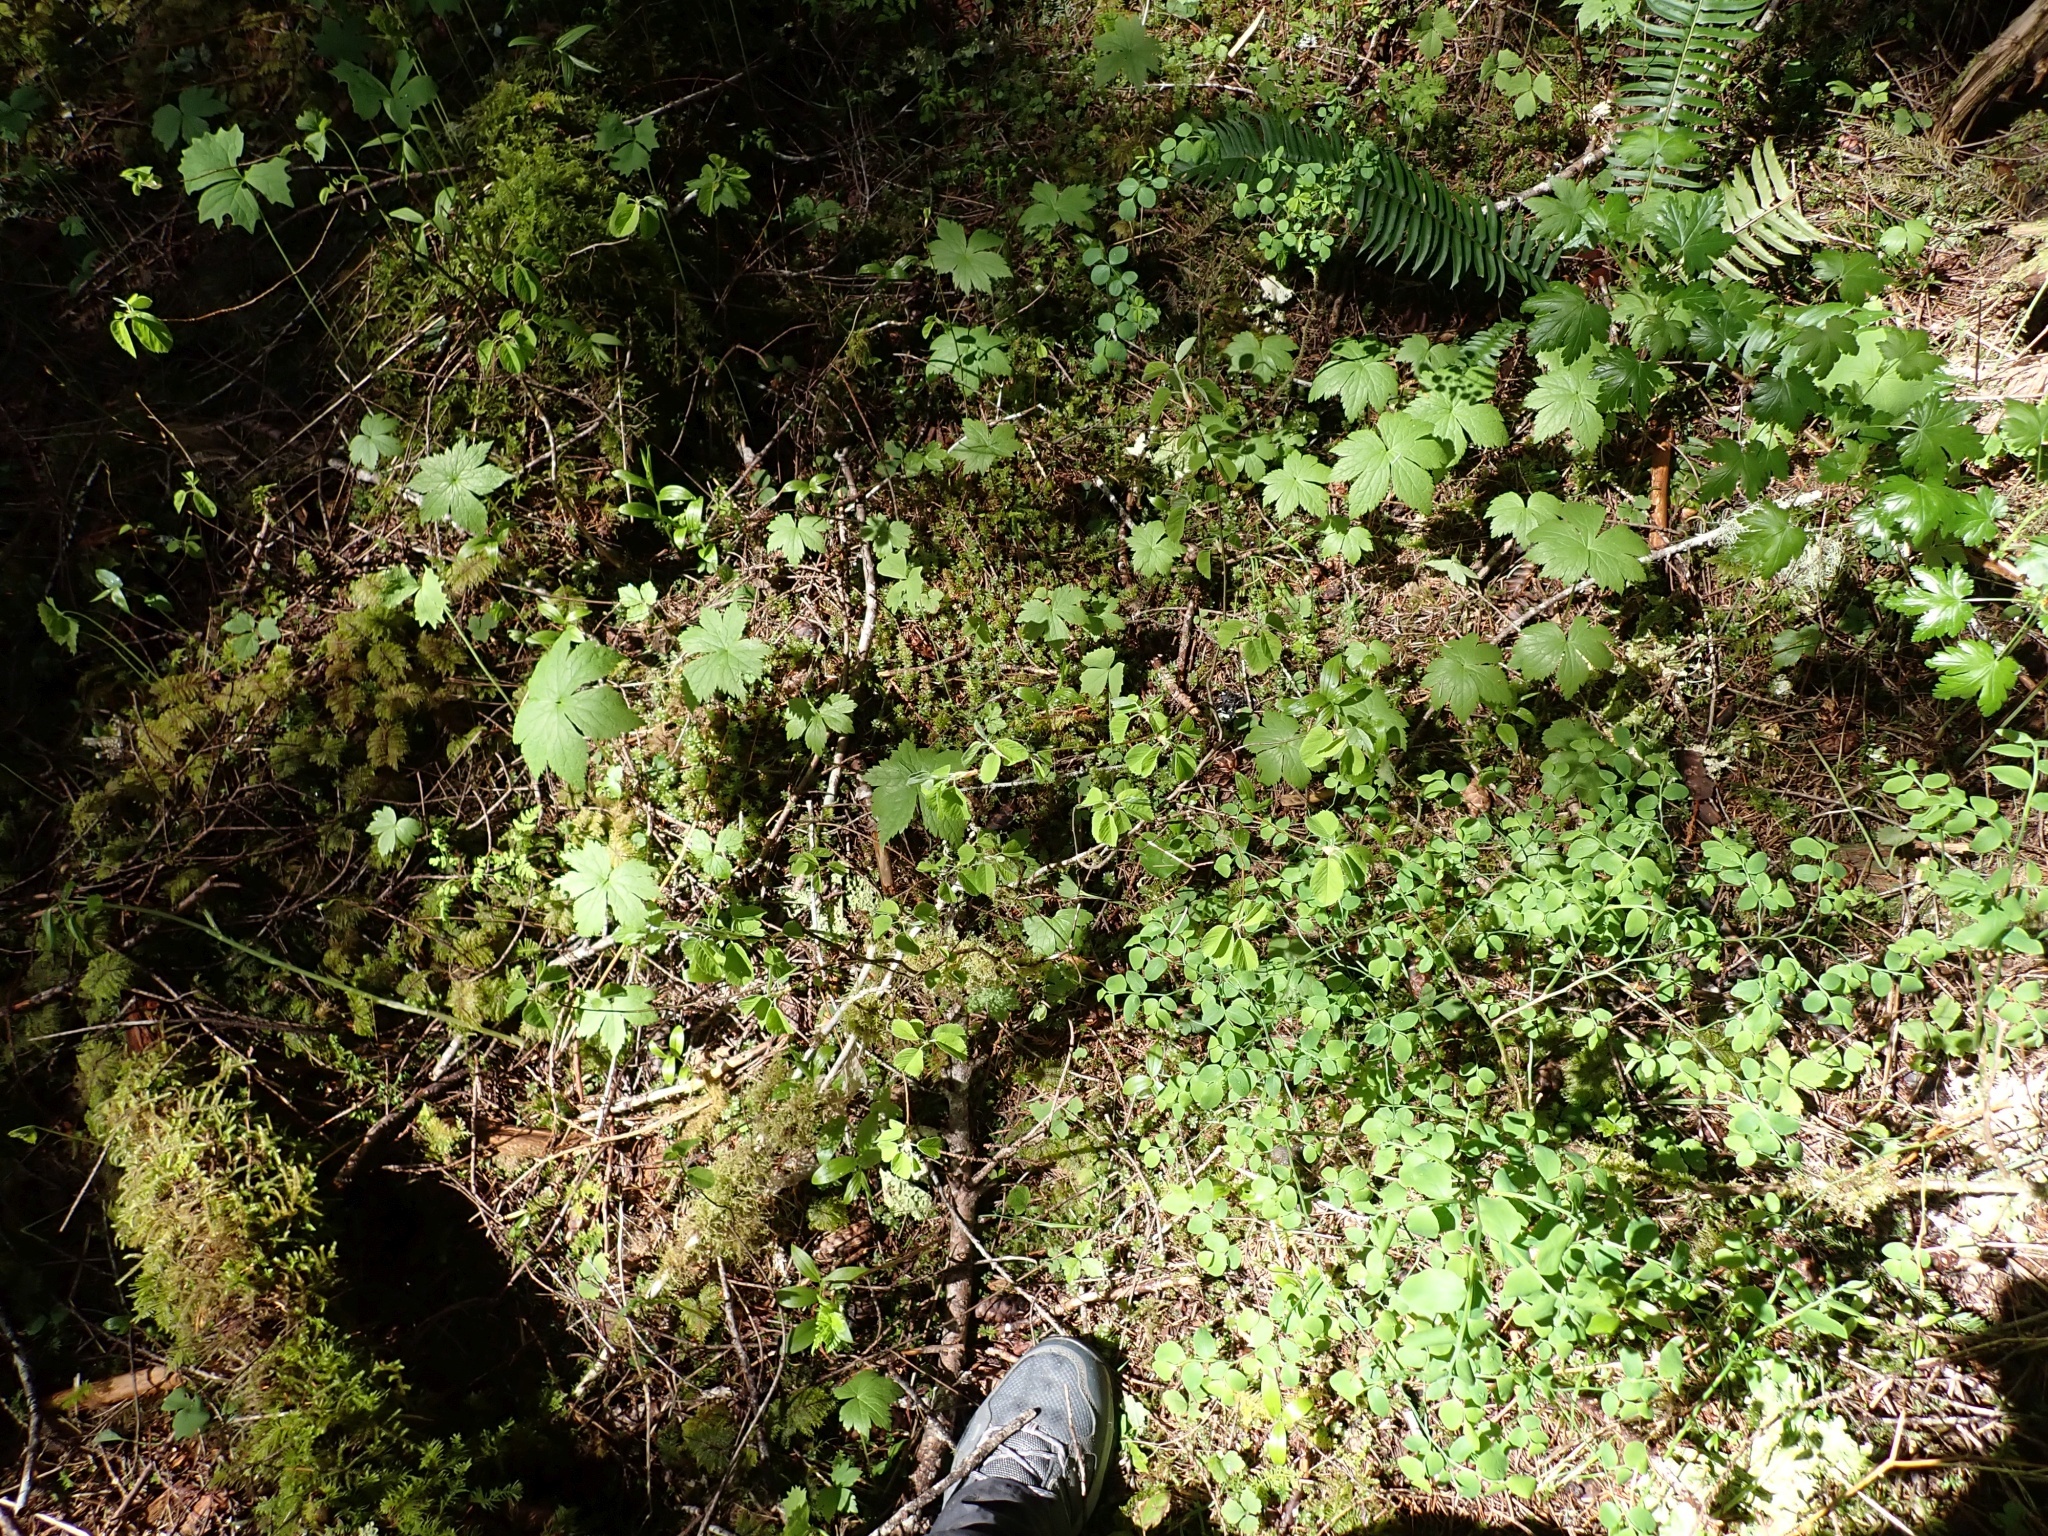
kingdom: Plantae
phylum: Tracheophyta
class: Magnoliopsida
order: Rosales
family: Rosaceae
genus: Amelanchier
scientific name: Amelanchier alnifolia
